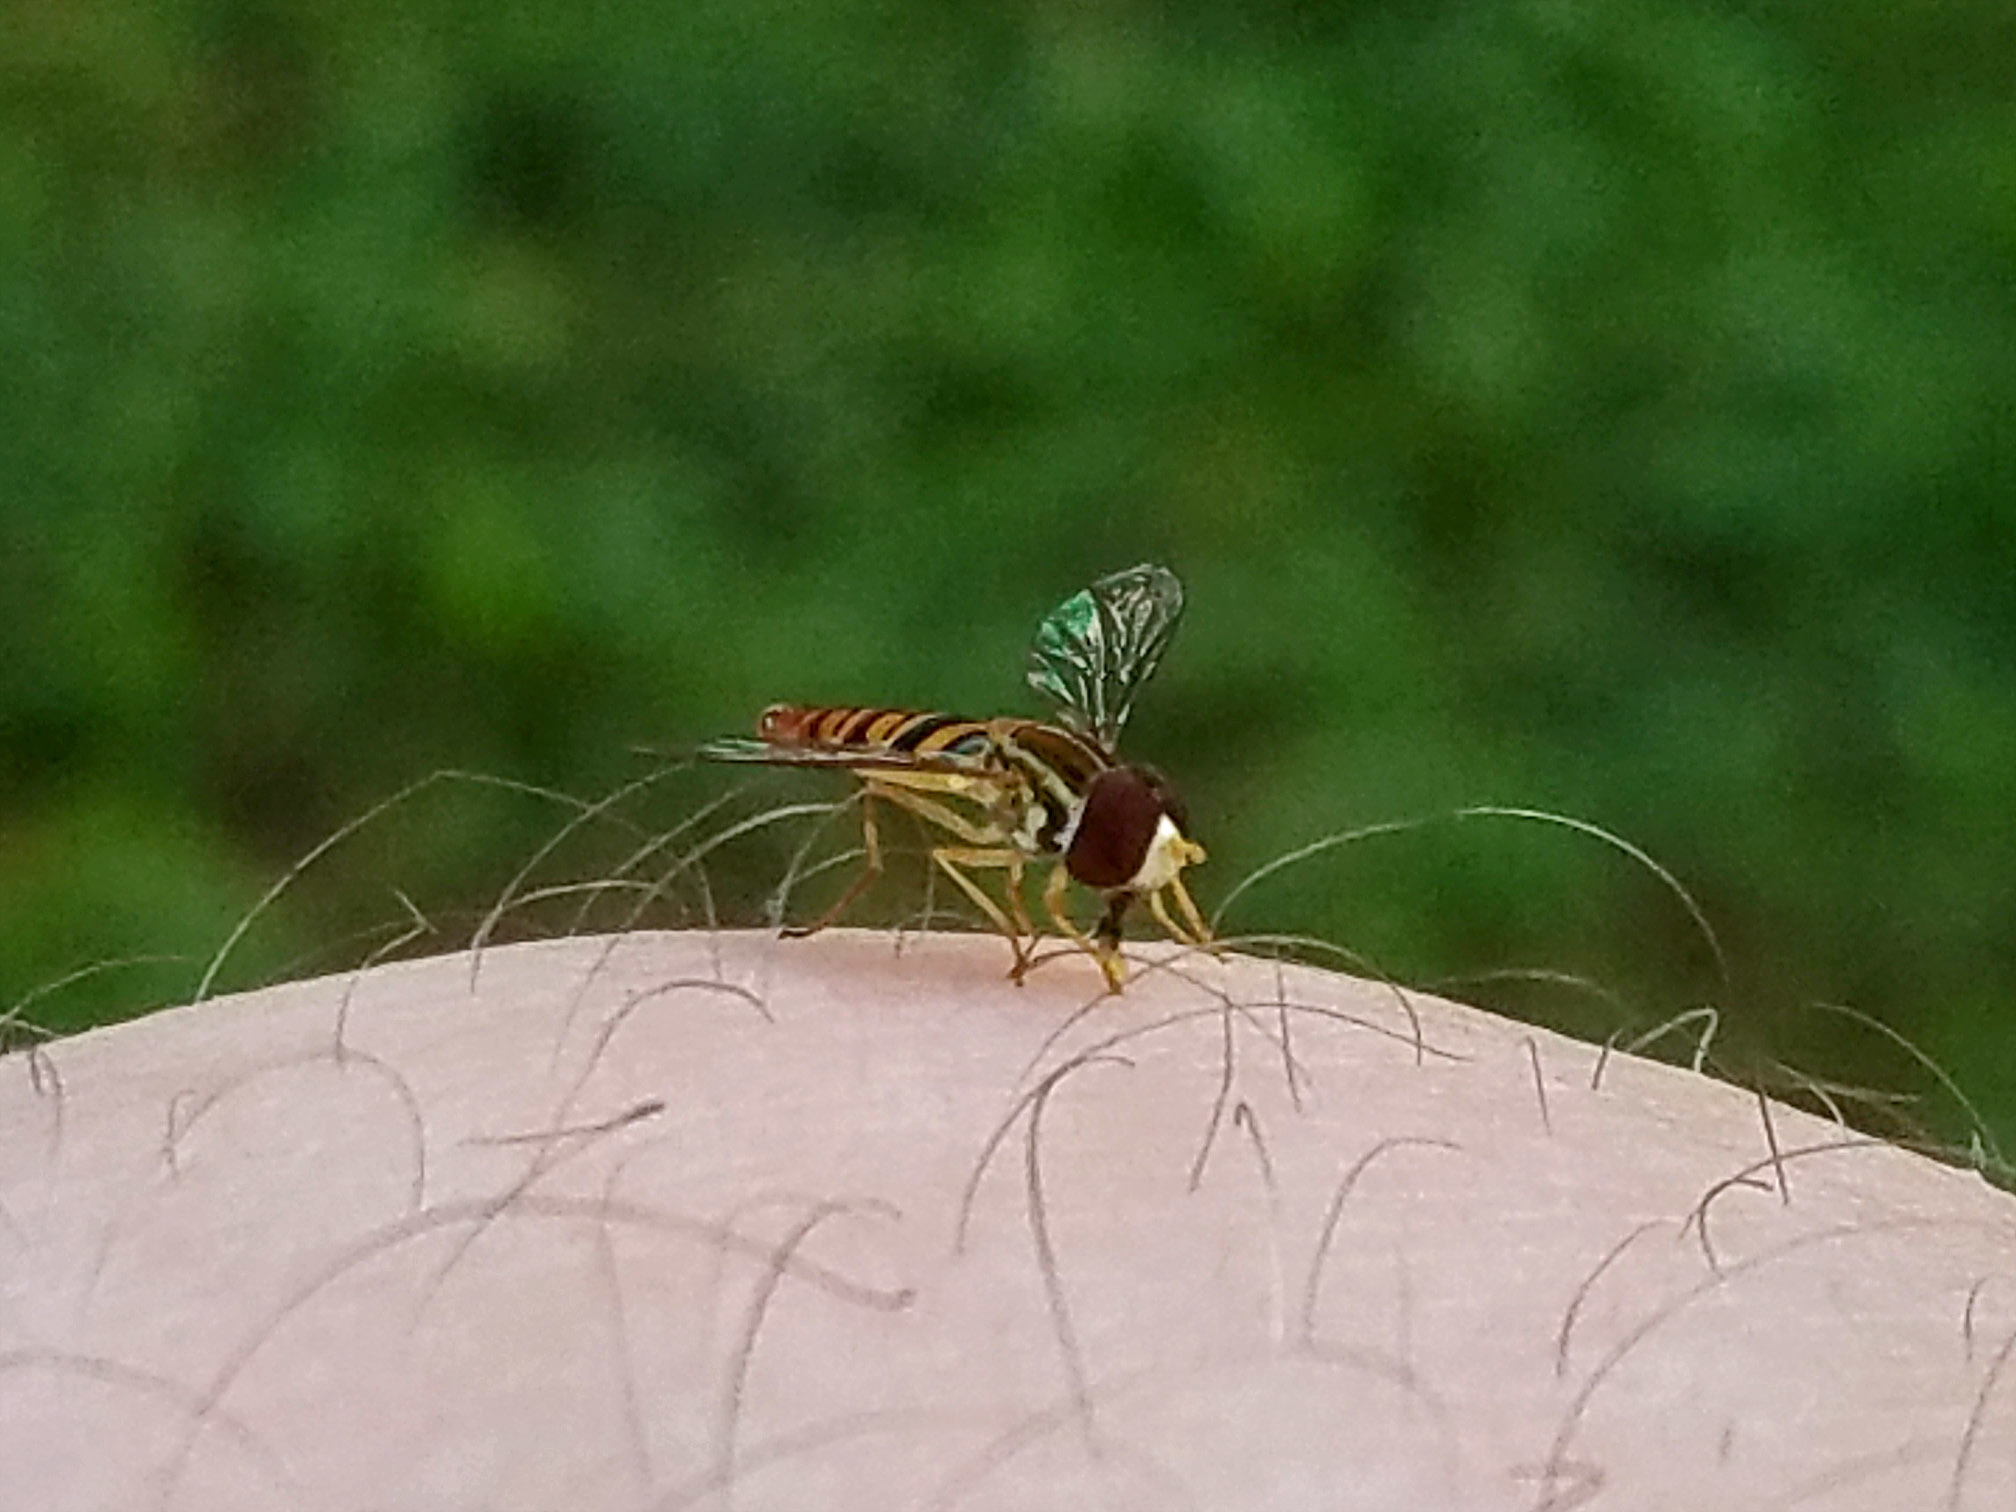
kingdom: Animalia
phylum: Arthropoda
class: Insecta
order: Diptera
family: Syrphidae
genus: Toxomerus
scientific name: Toxomerus politus
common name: Maize calligrapher
